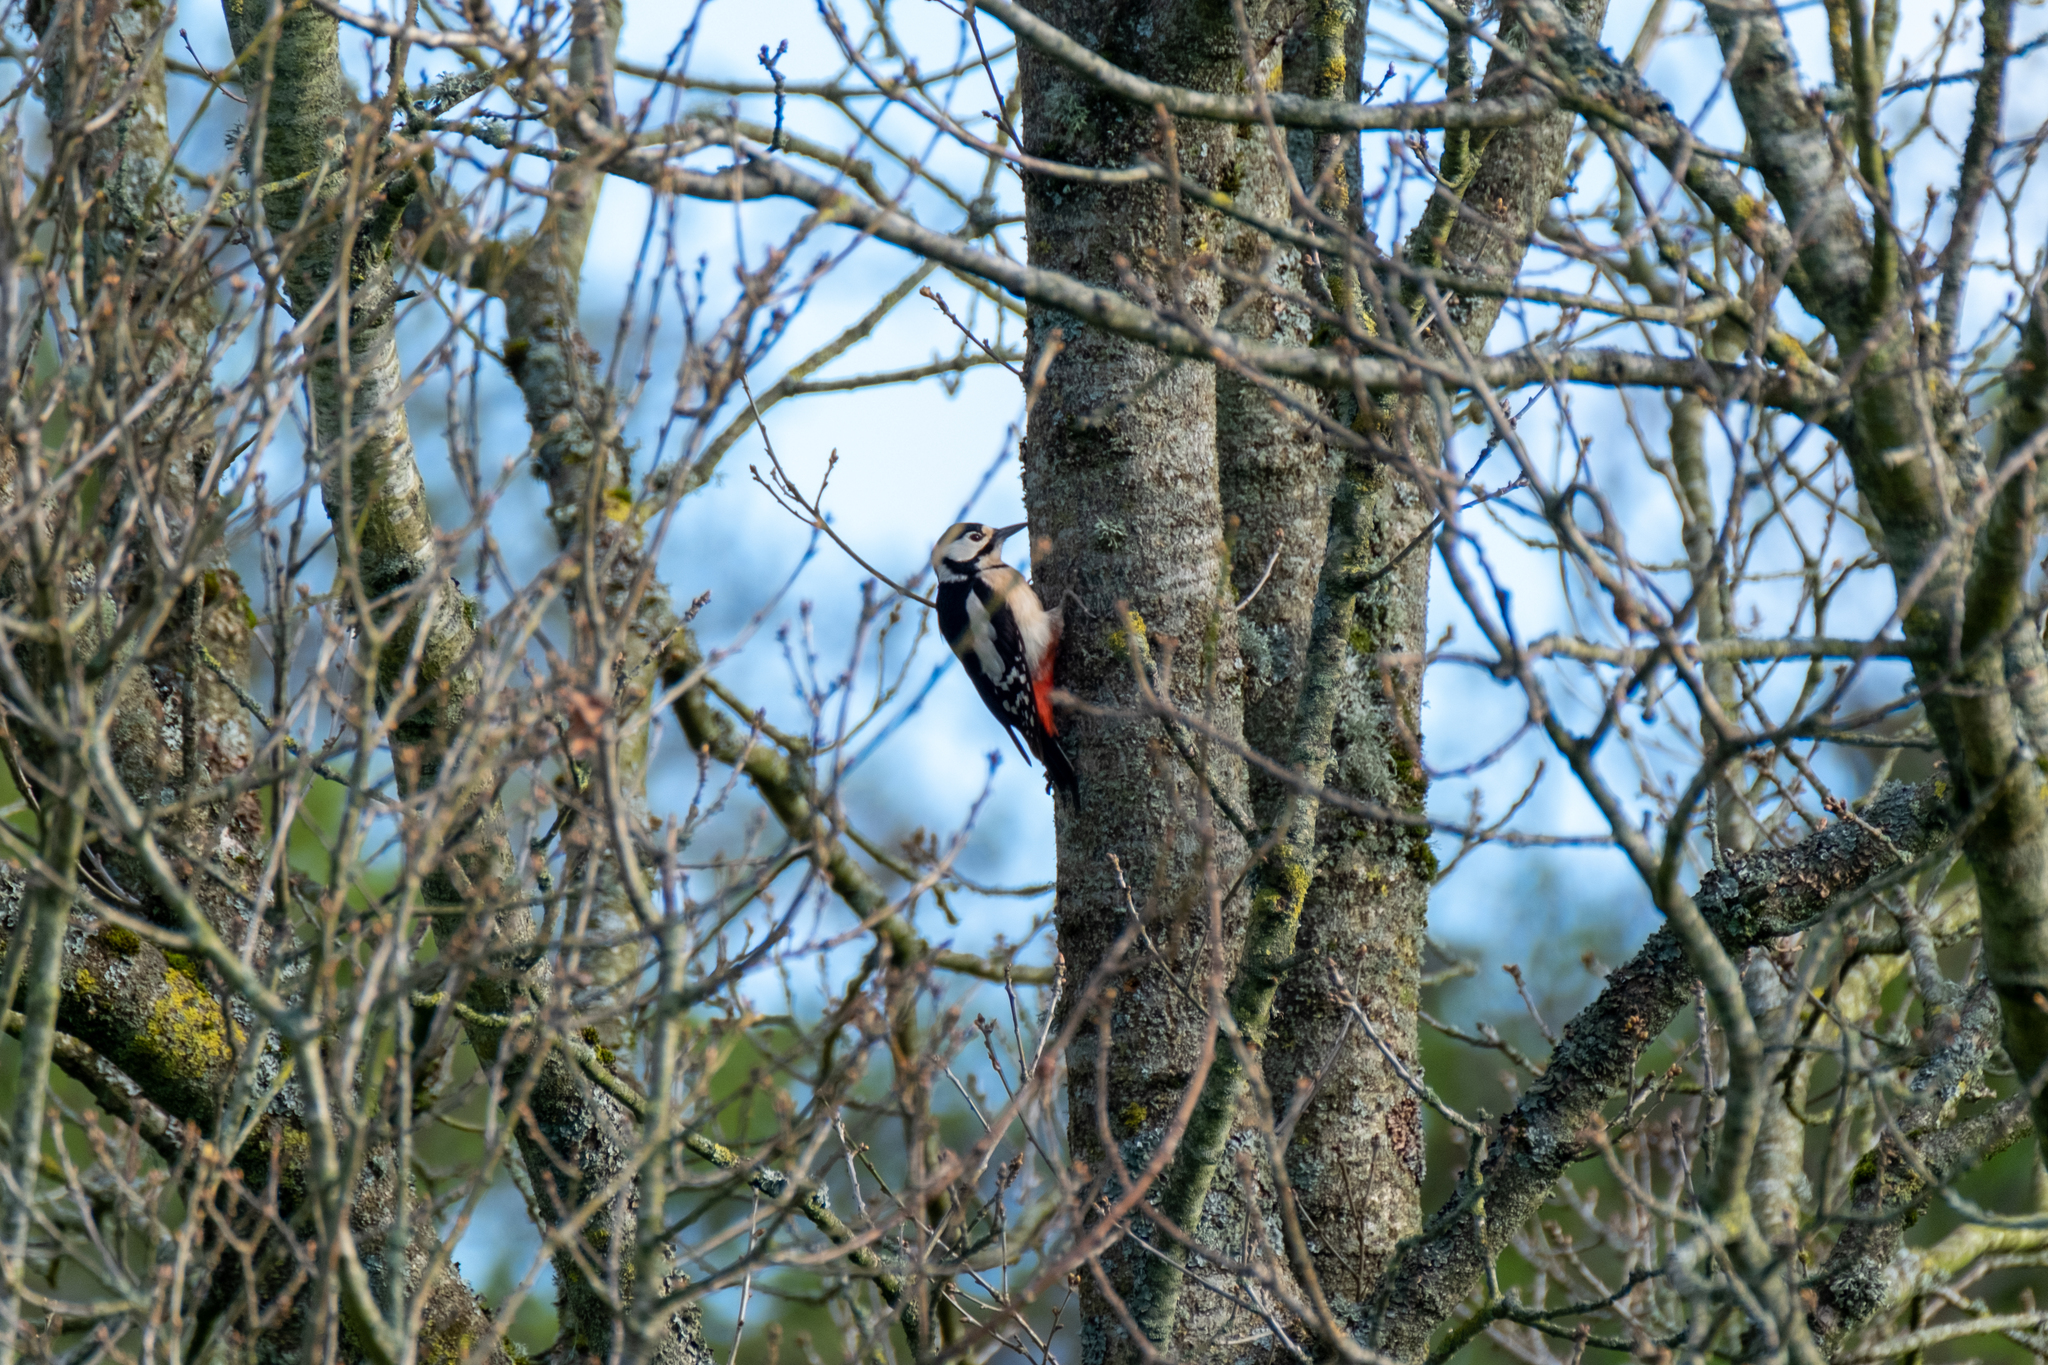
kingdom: Animalia
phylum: Chordata
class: Aves
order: Piciformes
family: Picidae
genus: Dendrocopos
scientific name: Dendrocopos major
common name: Great spotted woodpecker
